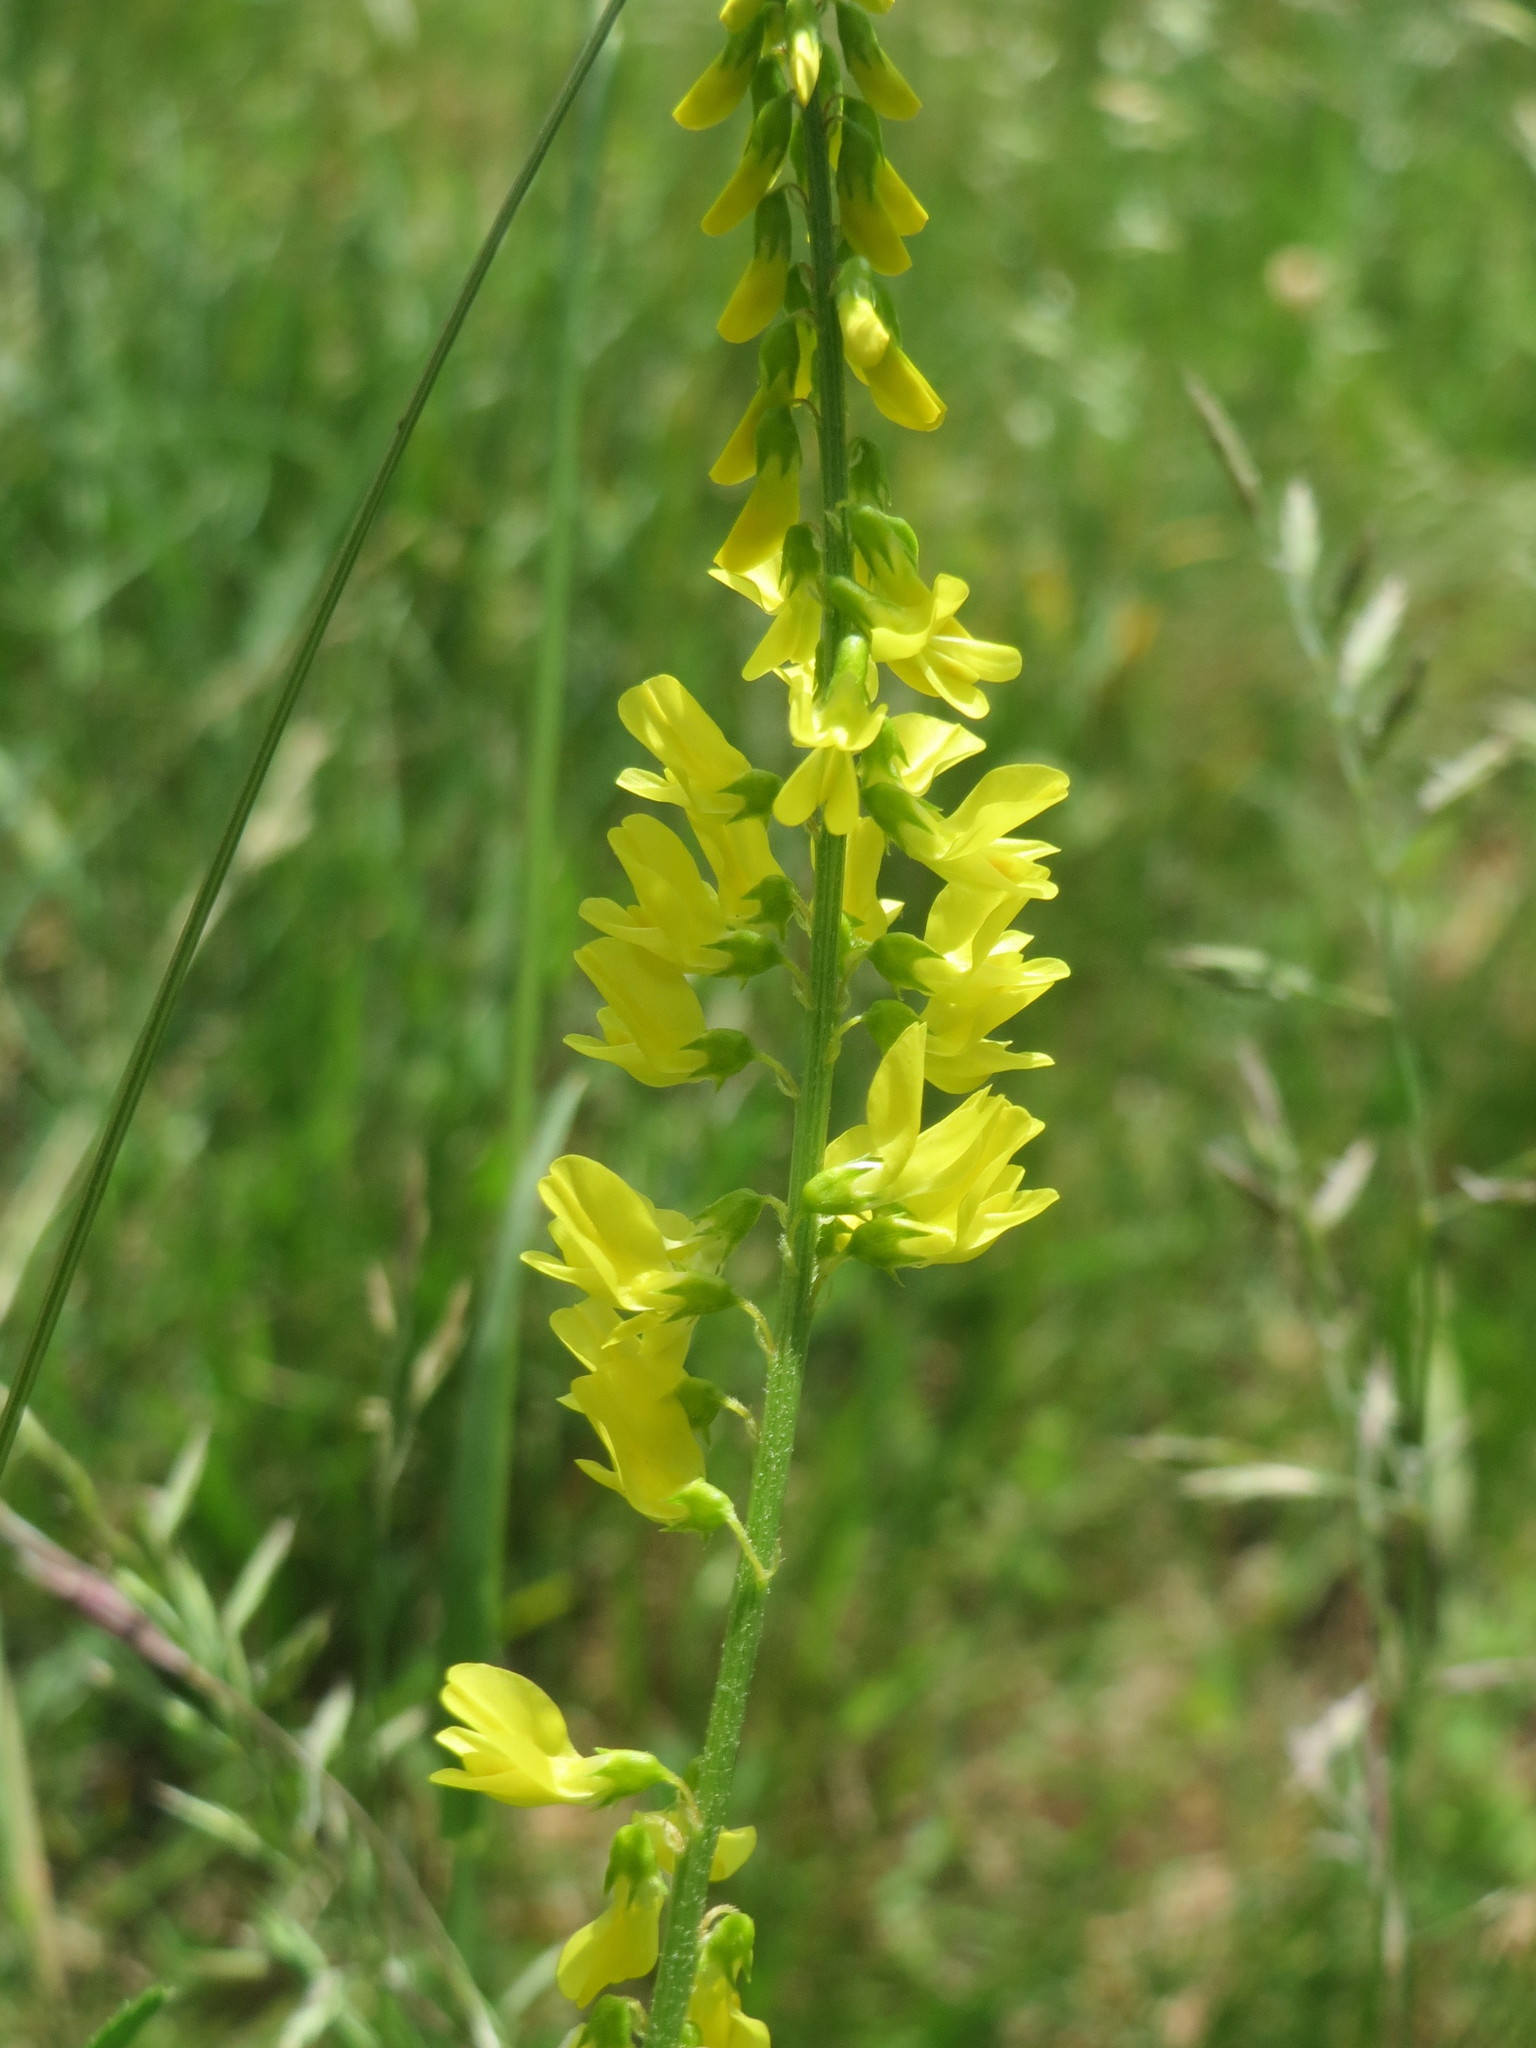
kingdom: Plantae
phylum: Tracheophyta
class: Magnoliopsida
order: Fabales
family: Fabaceae
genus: Melilotus
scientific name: Melilotus officinalis
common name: Sweetclover
